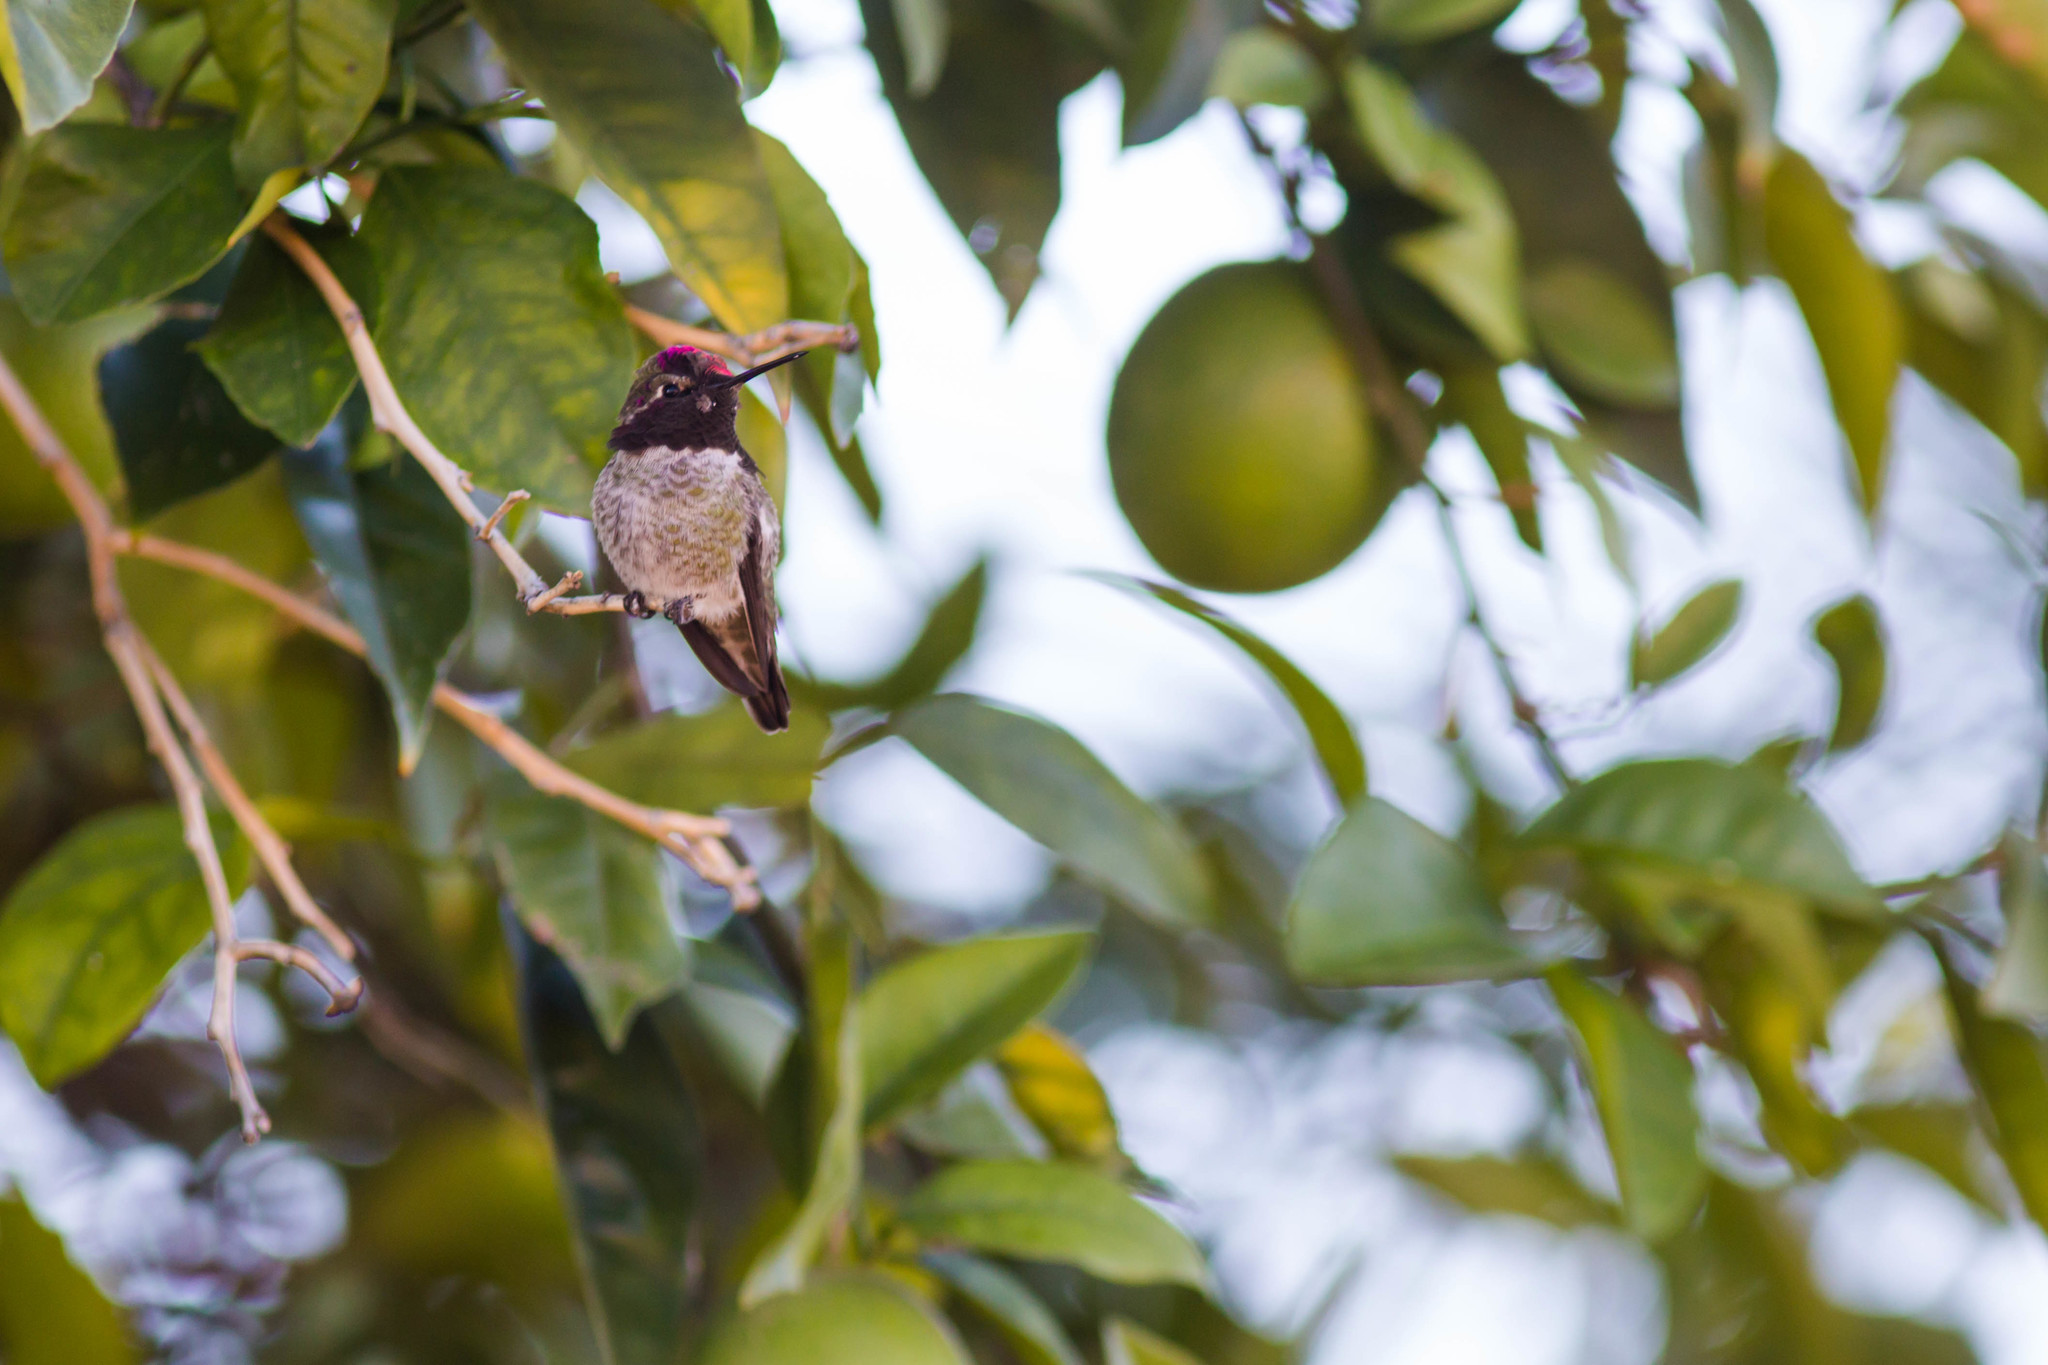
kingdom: Animalia
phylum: Chordata
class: Aves
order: Apodiformes
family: Trochilidae
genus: Calypte
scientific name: Calypte costae
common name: Costa's hummingbird
